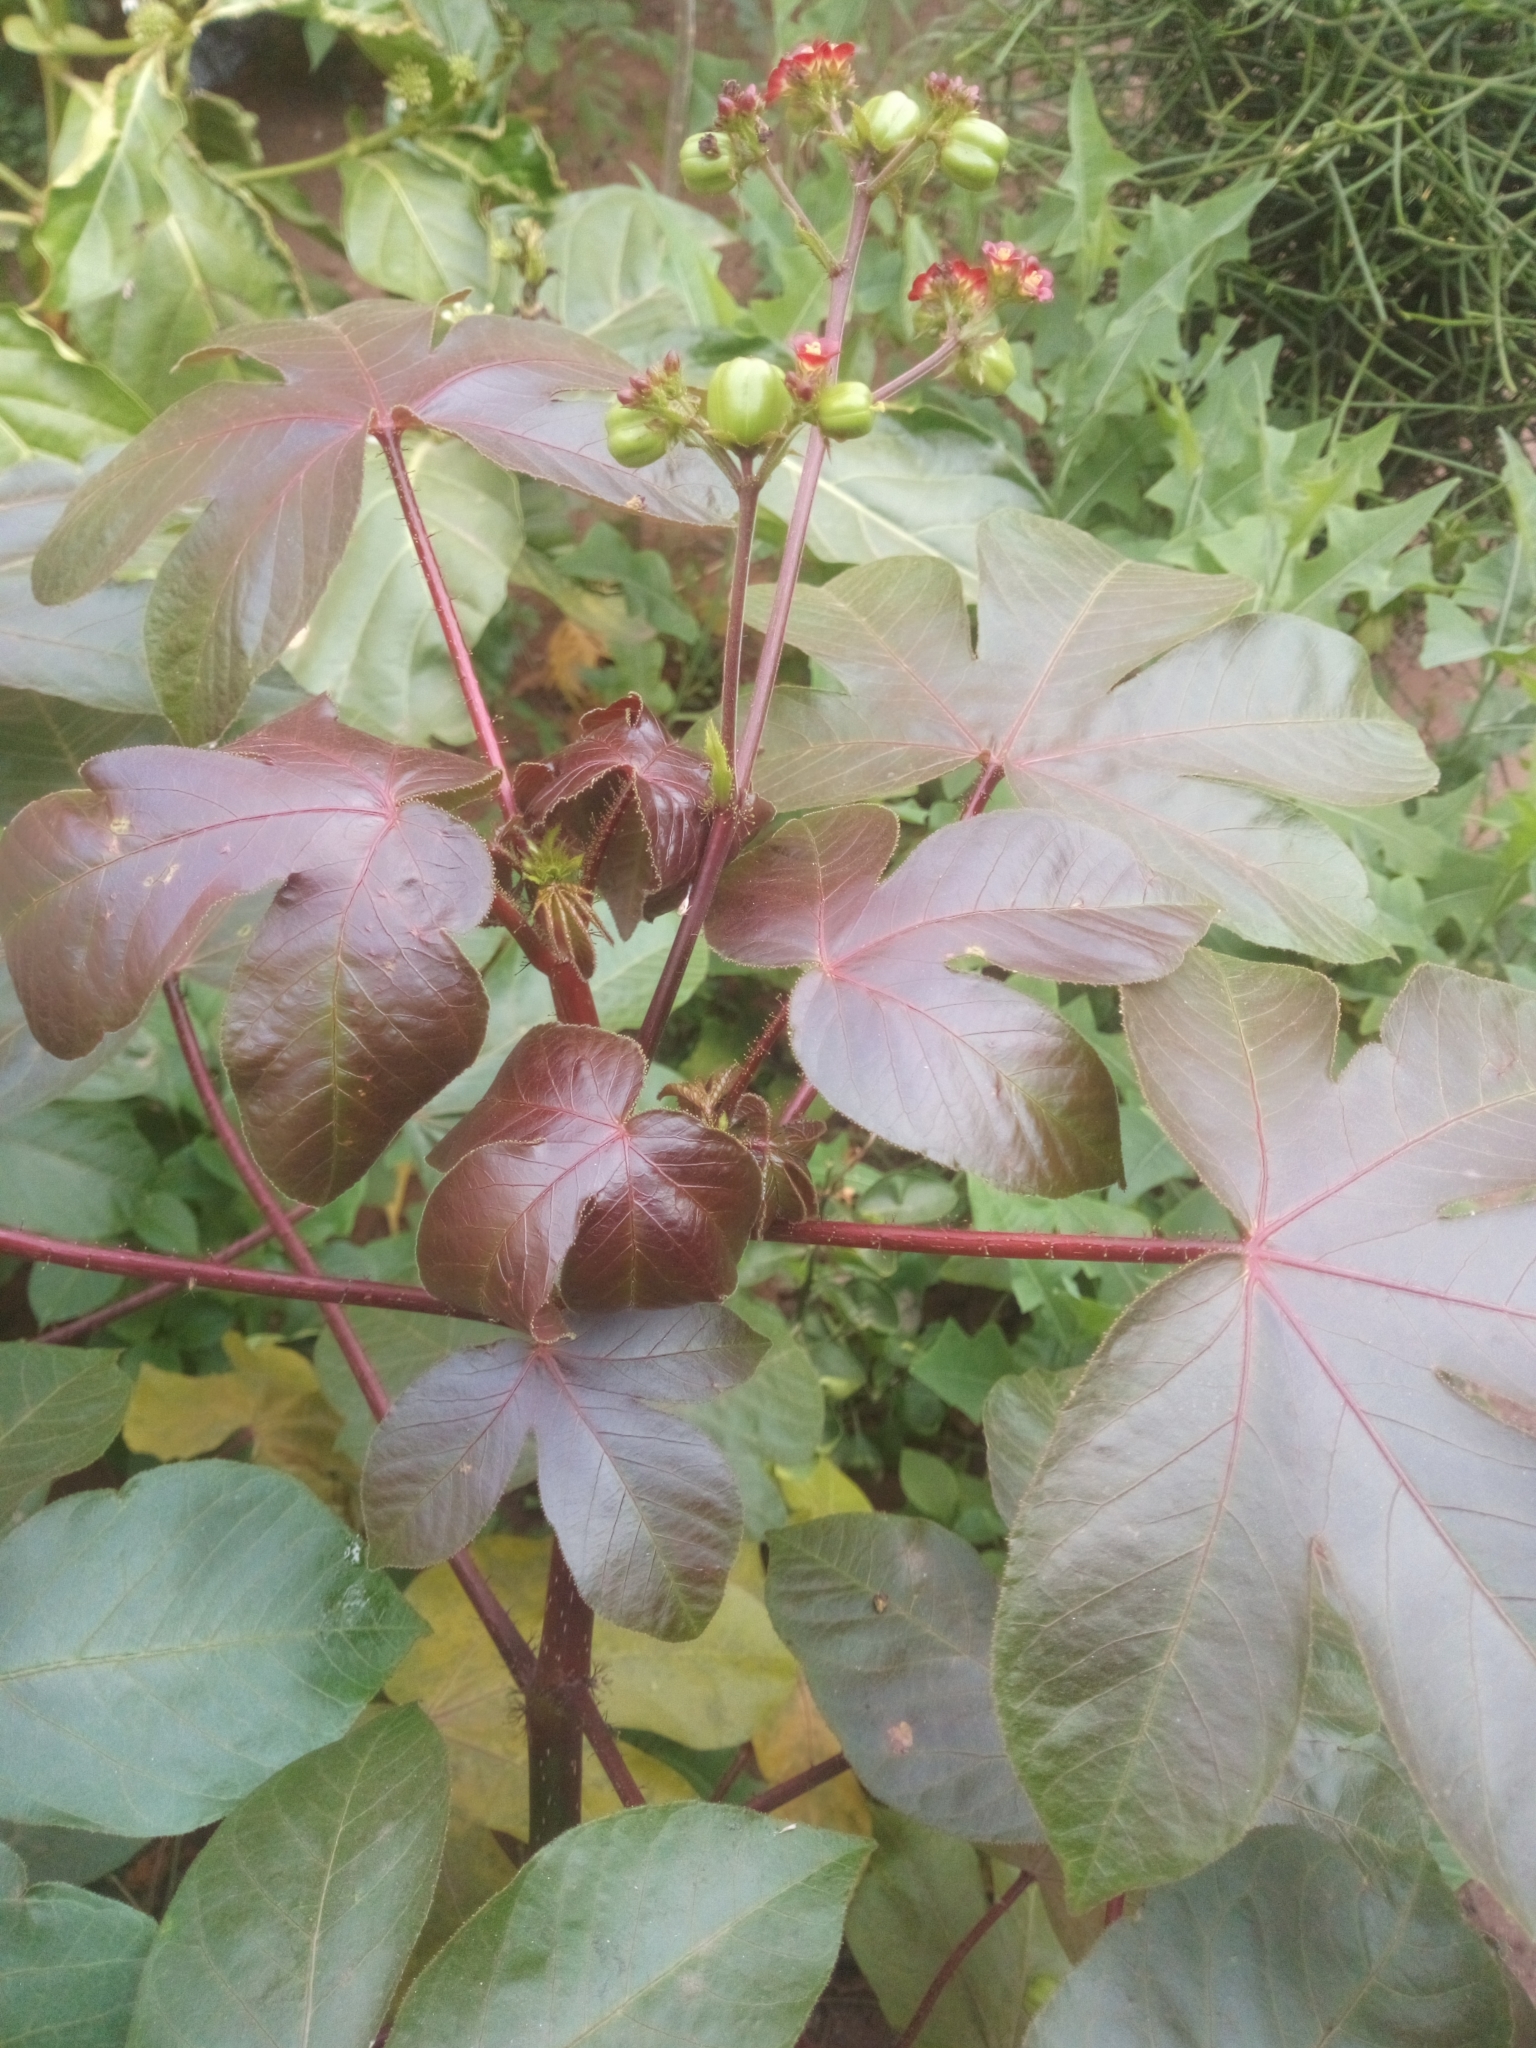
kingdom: Plantae
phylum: Tracheophyta
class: Magnoliopsida
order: Malpighiales
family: Euphorbiaceae
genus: Jatropha
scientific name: Jatropha gossypiifolia
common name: Bellyache bush
